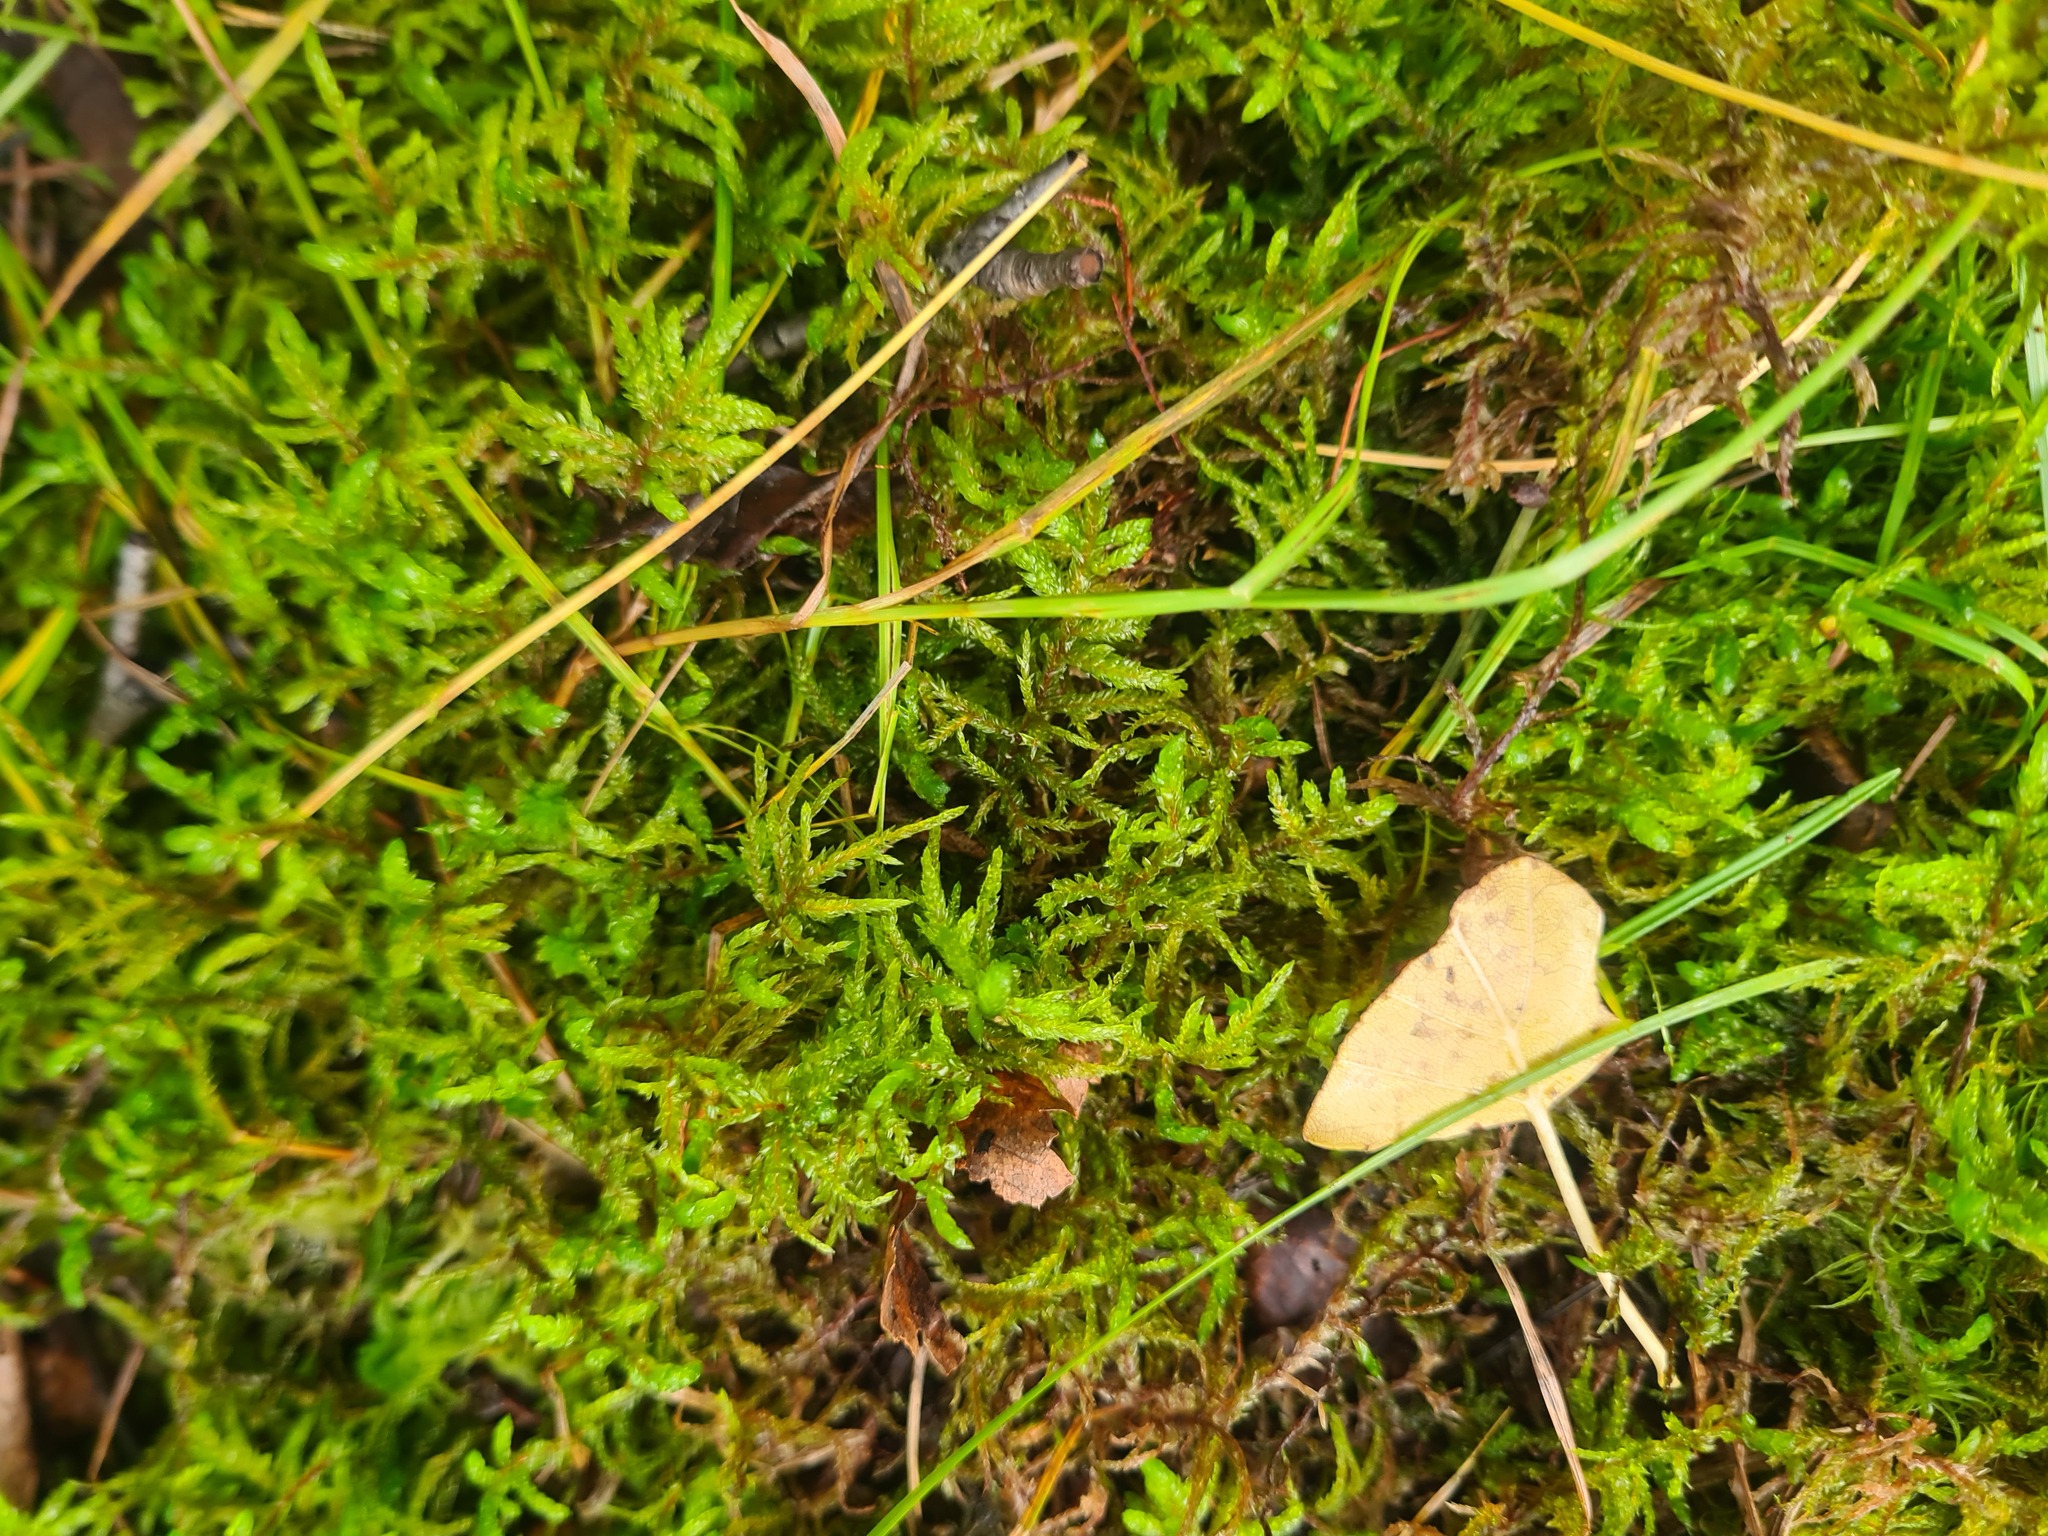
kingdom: Plantae
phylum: Bryophyta
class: Bryopsida
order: Hypnales
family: Hylocomiaceae
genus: Pleurozium
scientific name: Pleurozium schreberi
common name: Red-stemmed feather moss
